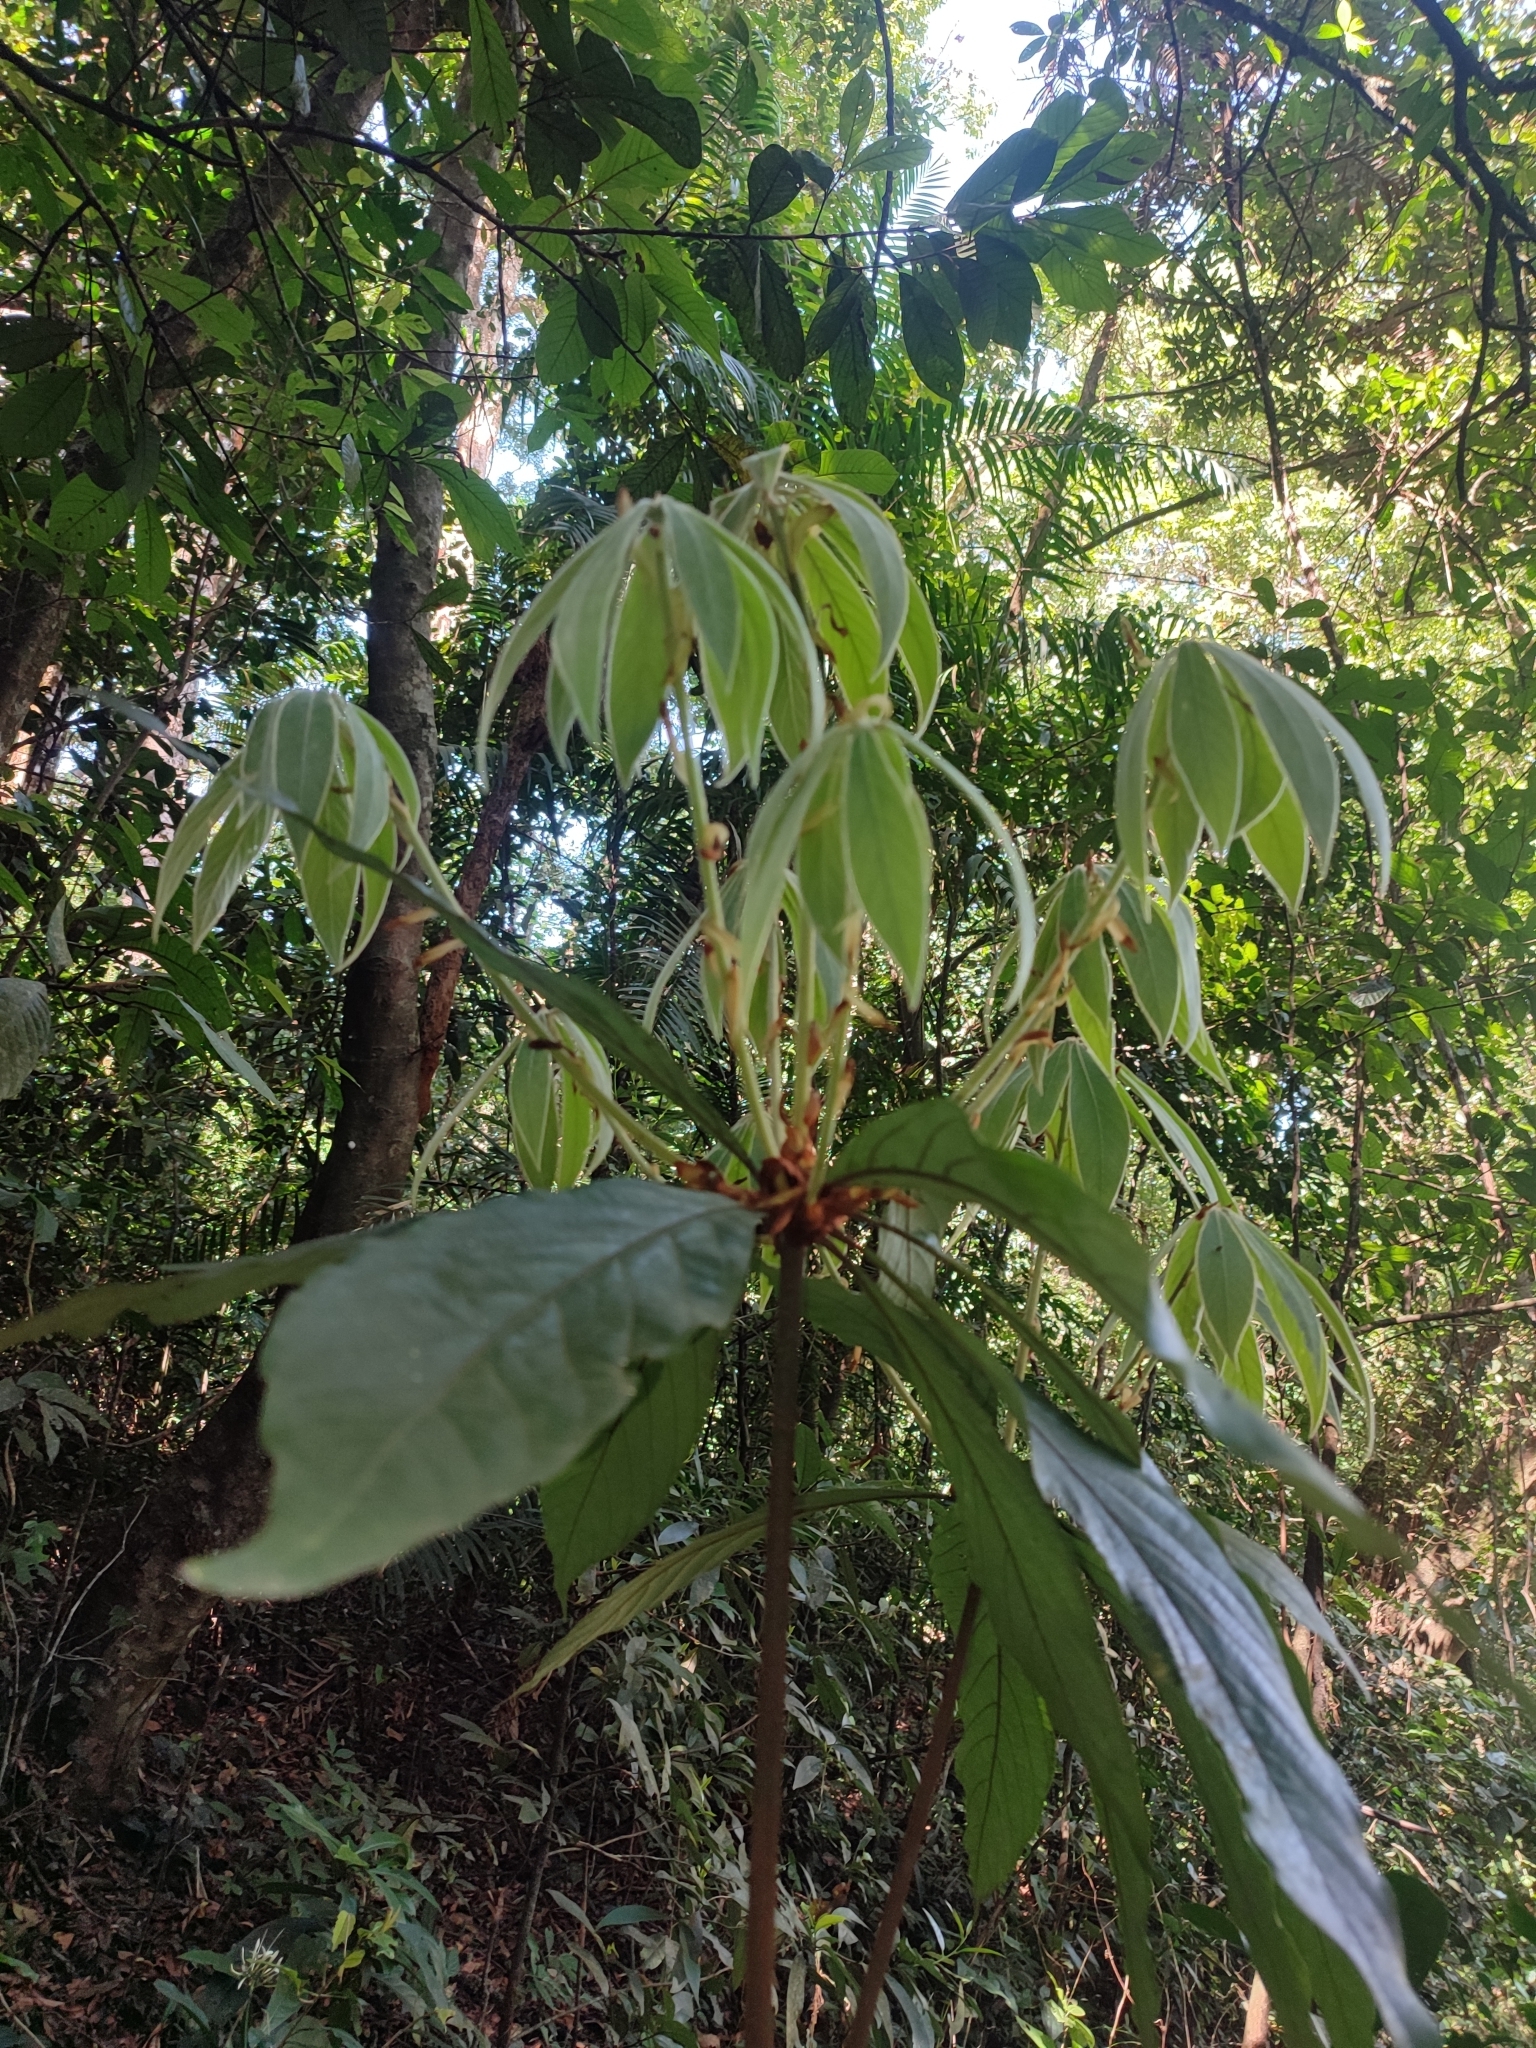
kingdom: Plantae
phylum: Tracheophyta
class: Magnoliopsida
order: Laurales
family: Lauraceae
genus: Actinodaphne
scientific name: Actinodaphne bourdillonii
